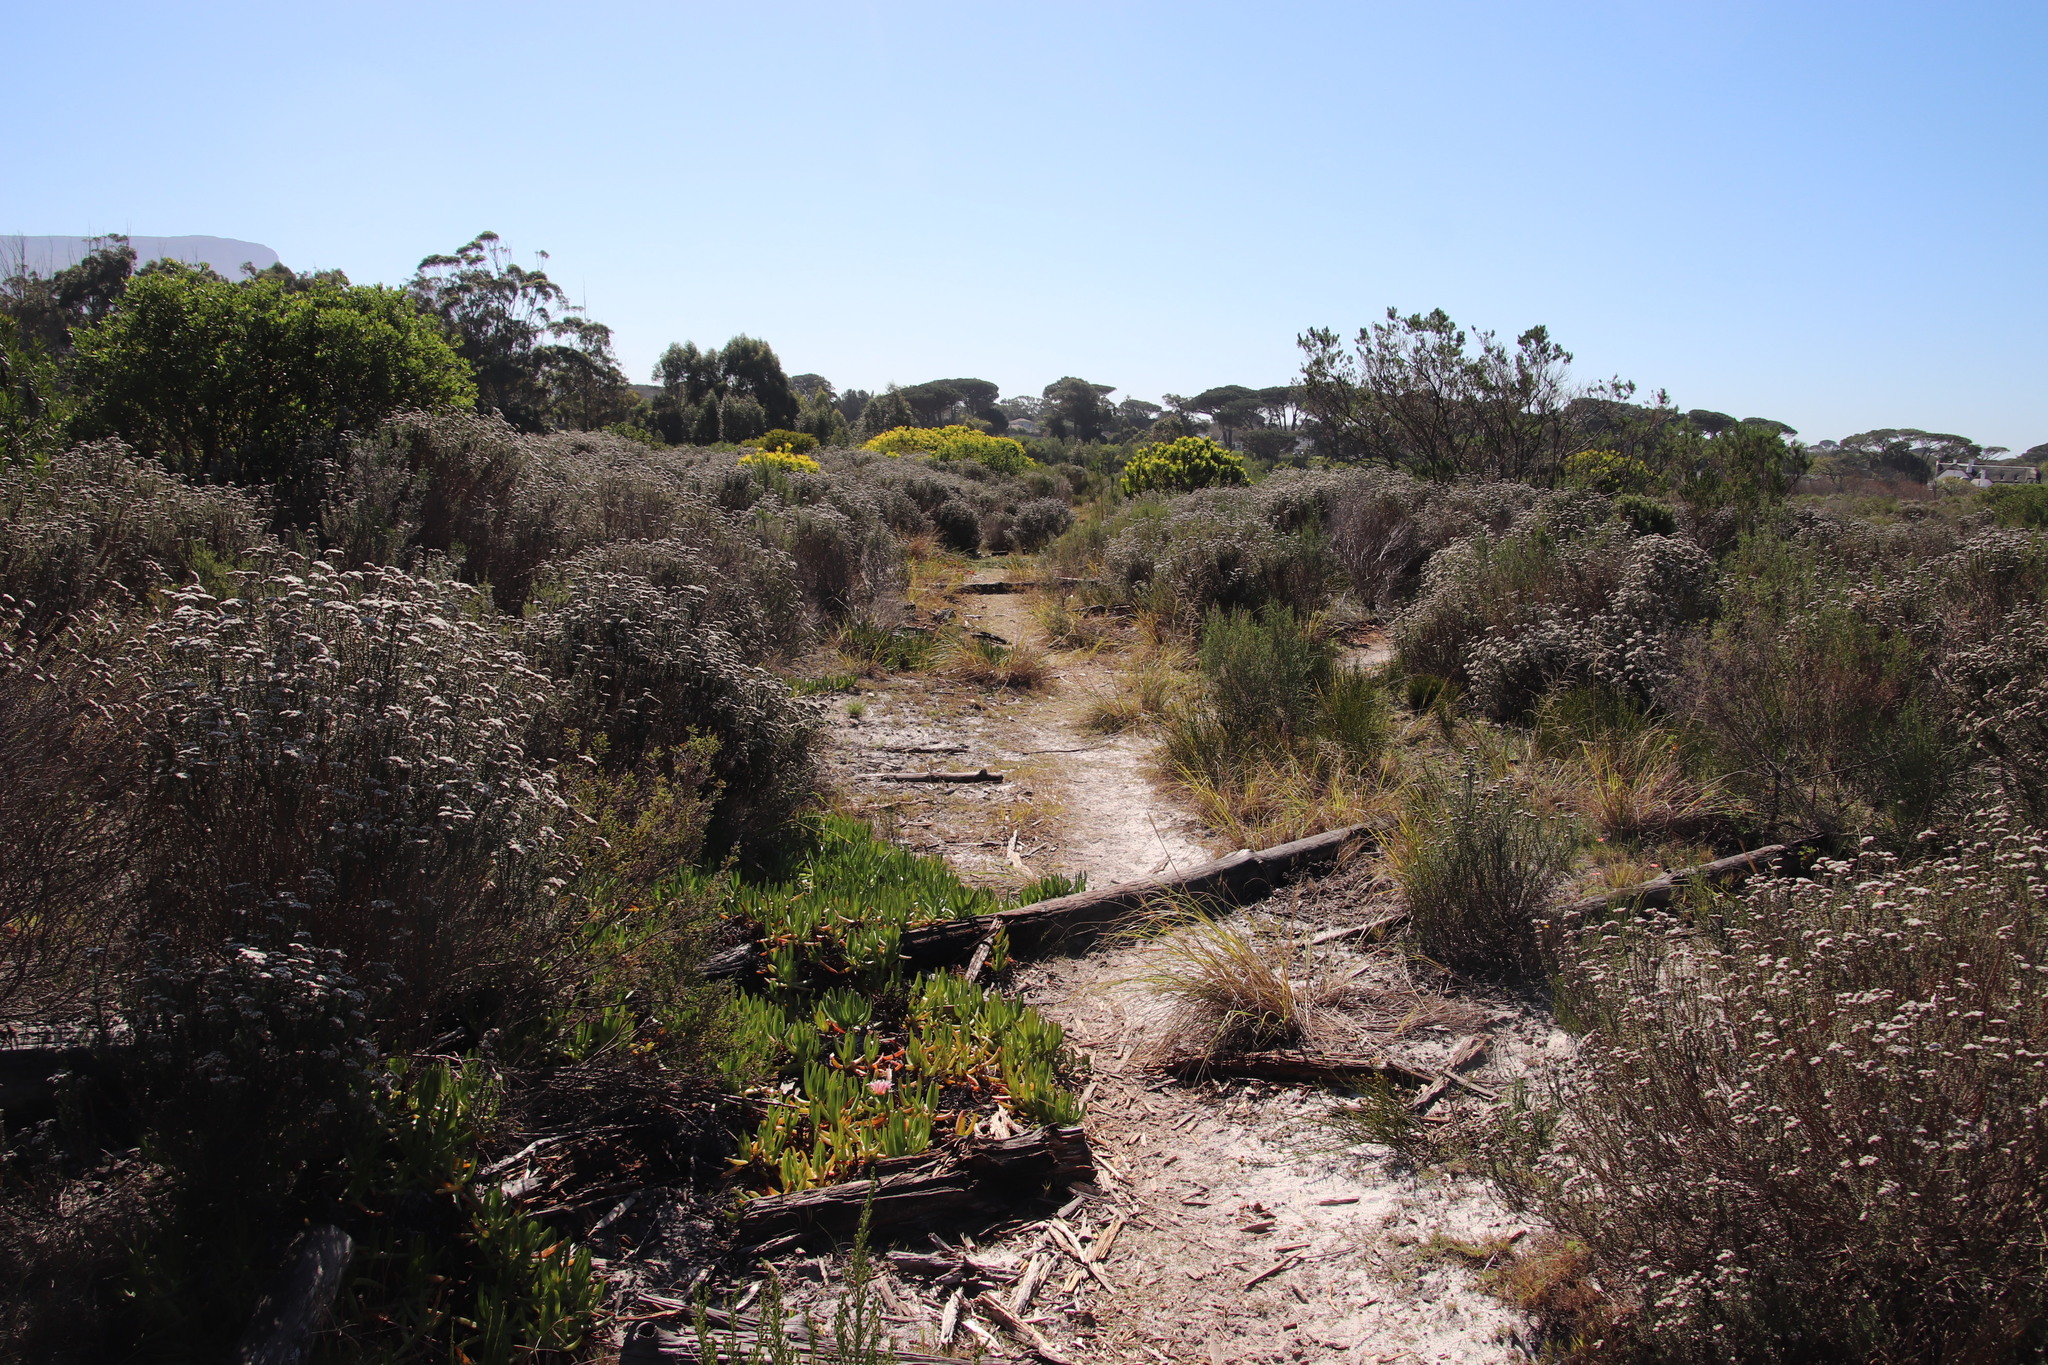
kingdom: Plantae
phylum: Tracheophyta
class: Magnoliopsida
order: Caryophyllales
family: Aizoaceae
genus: Carpobrotus
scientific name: Carpobrotus edulis
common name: Hottentot-fig
